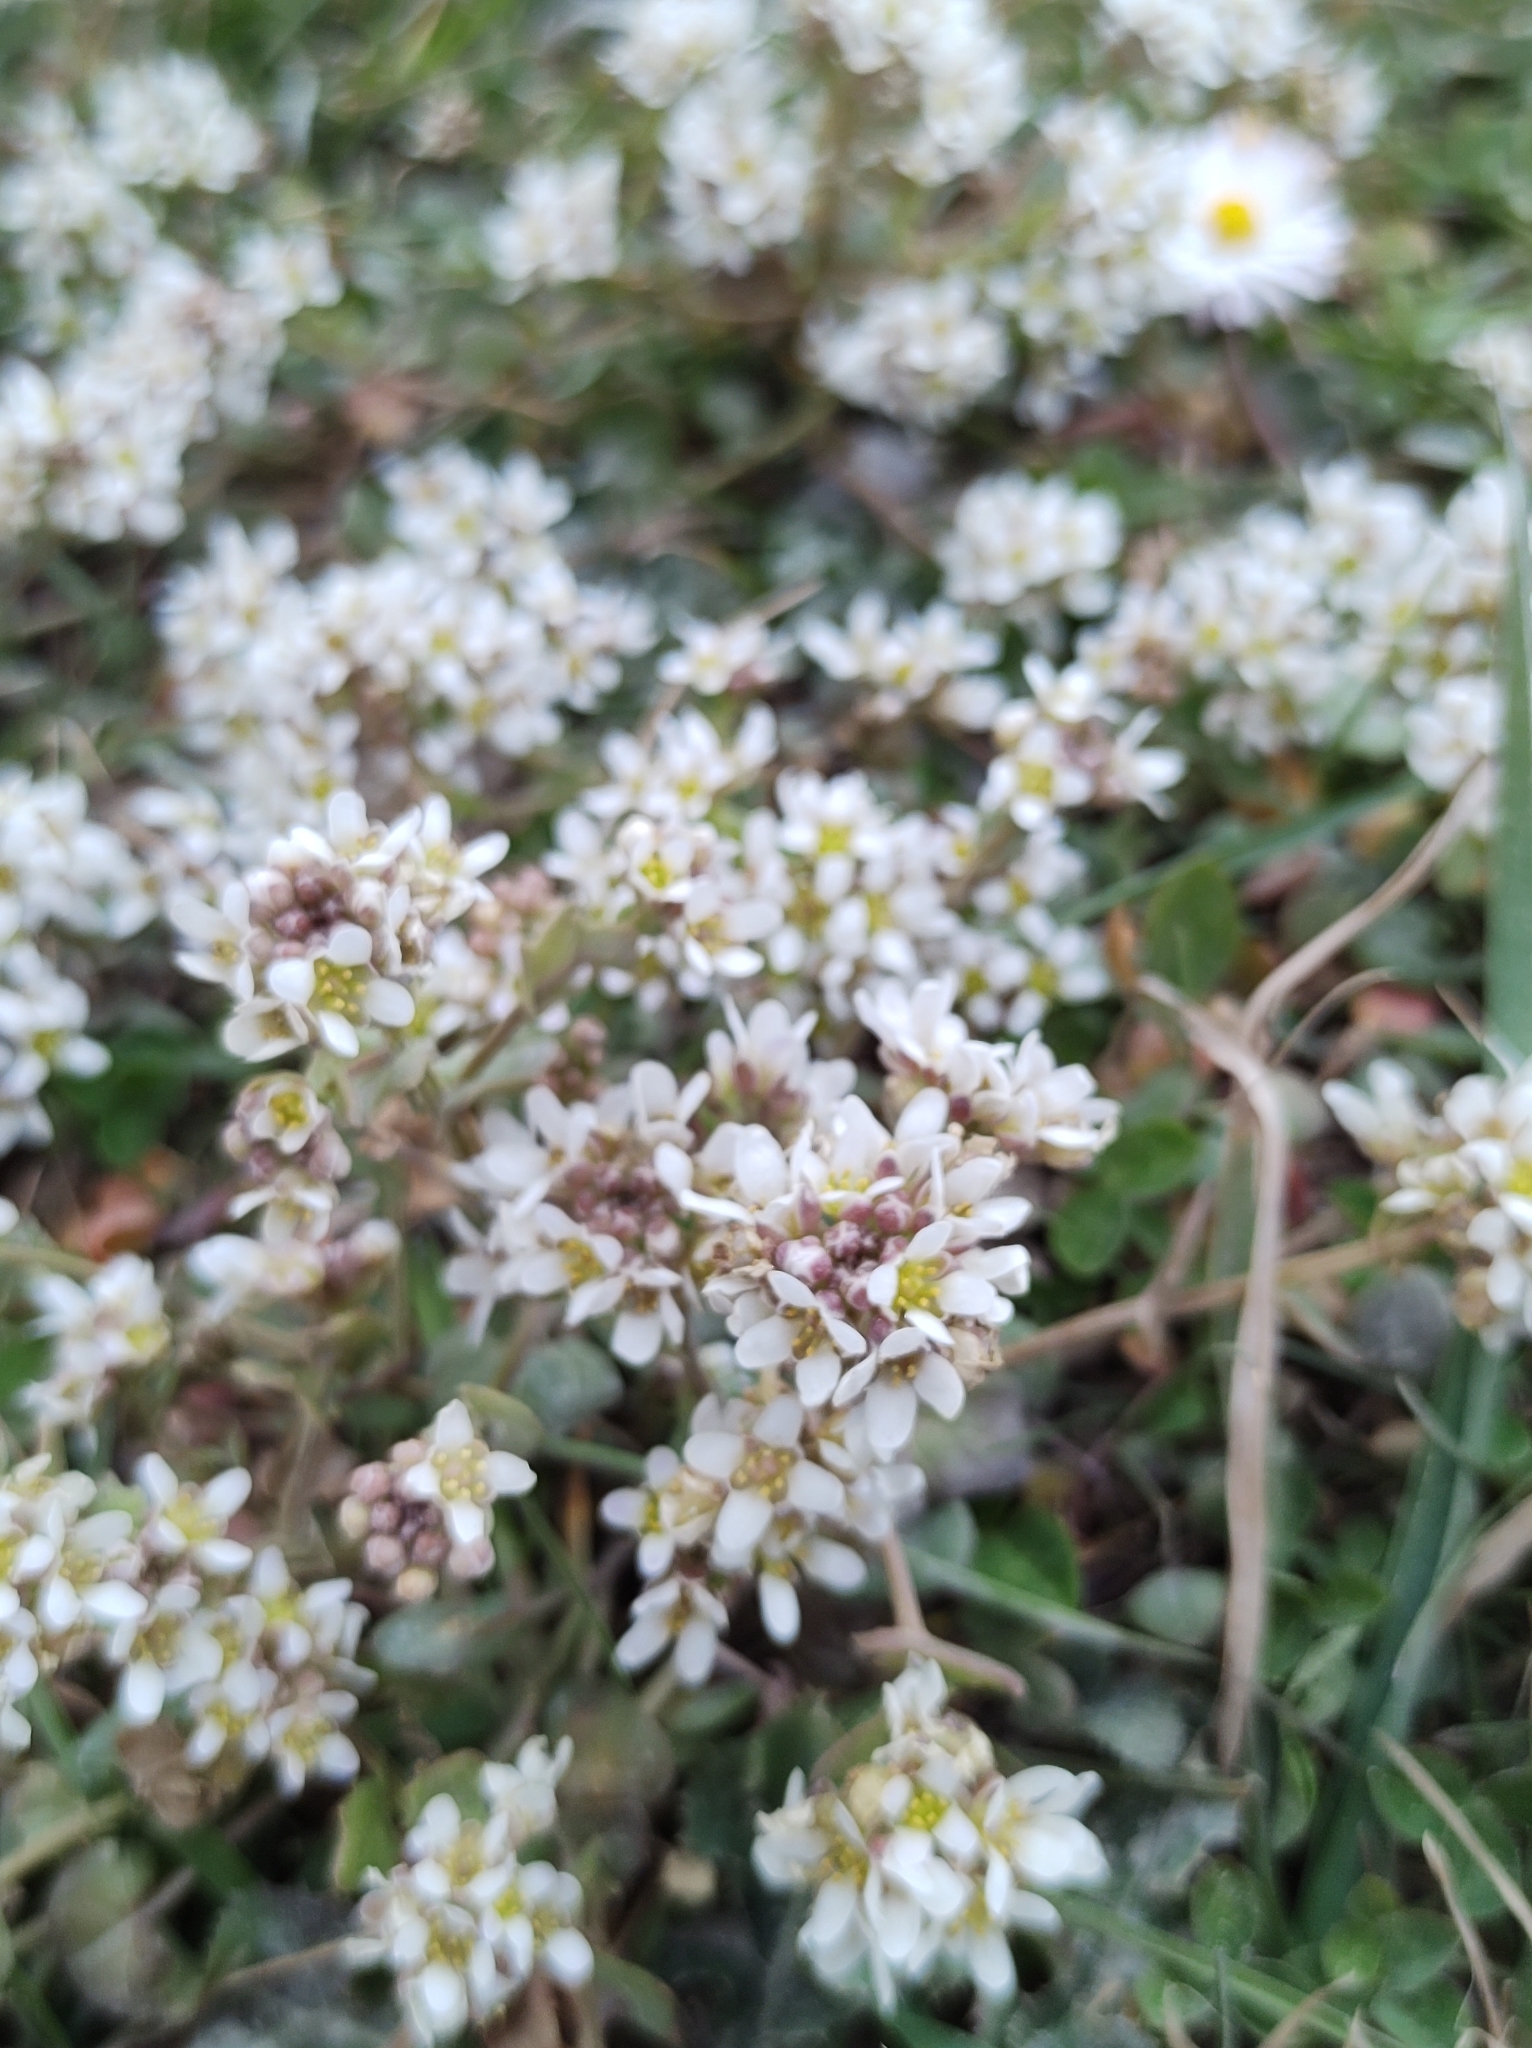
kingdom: Plantae
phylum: Tracheophyta
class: Magnoliopsida
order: Brassicales
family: Brassicaceae
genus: Cochlearia
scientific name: Cochlearia danica
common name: Early scurvygrass
